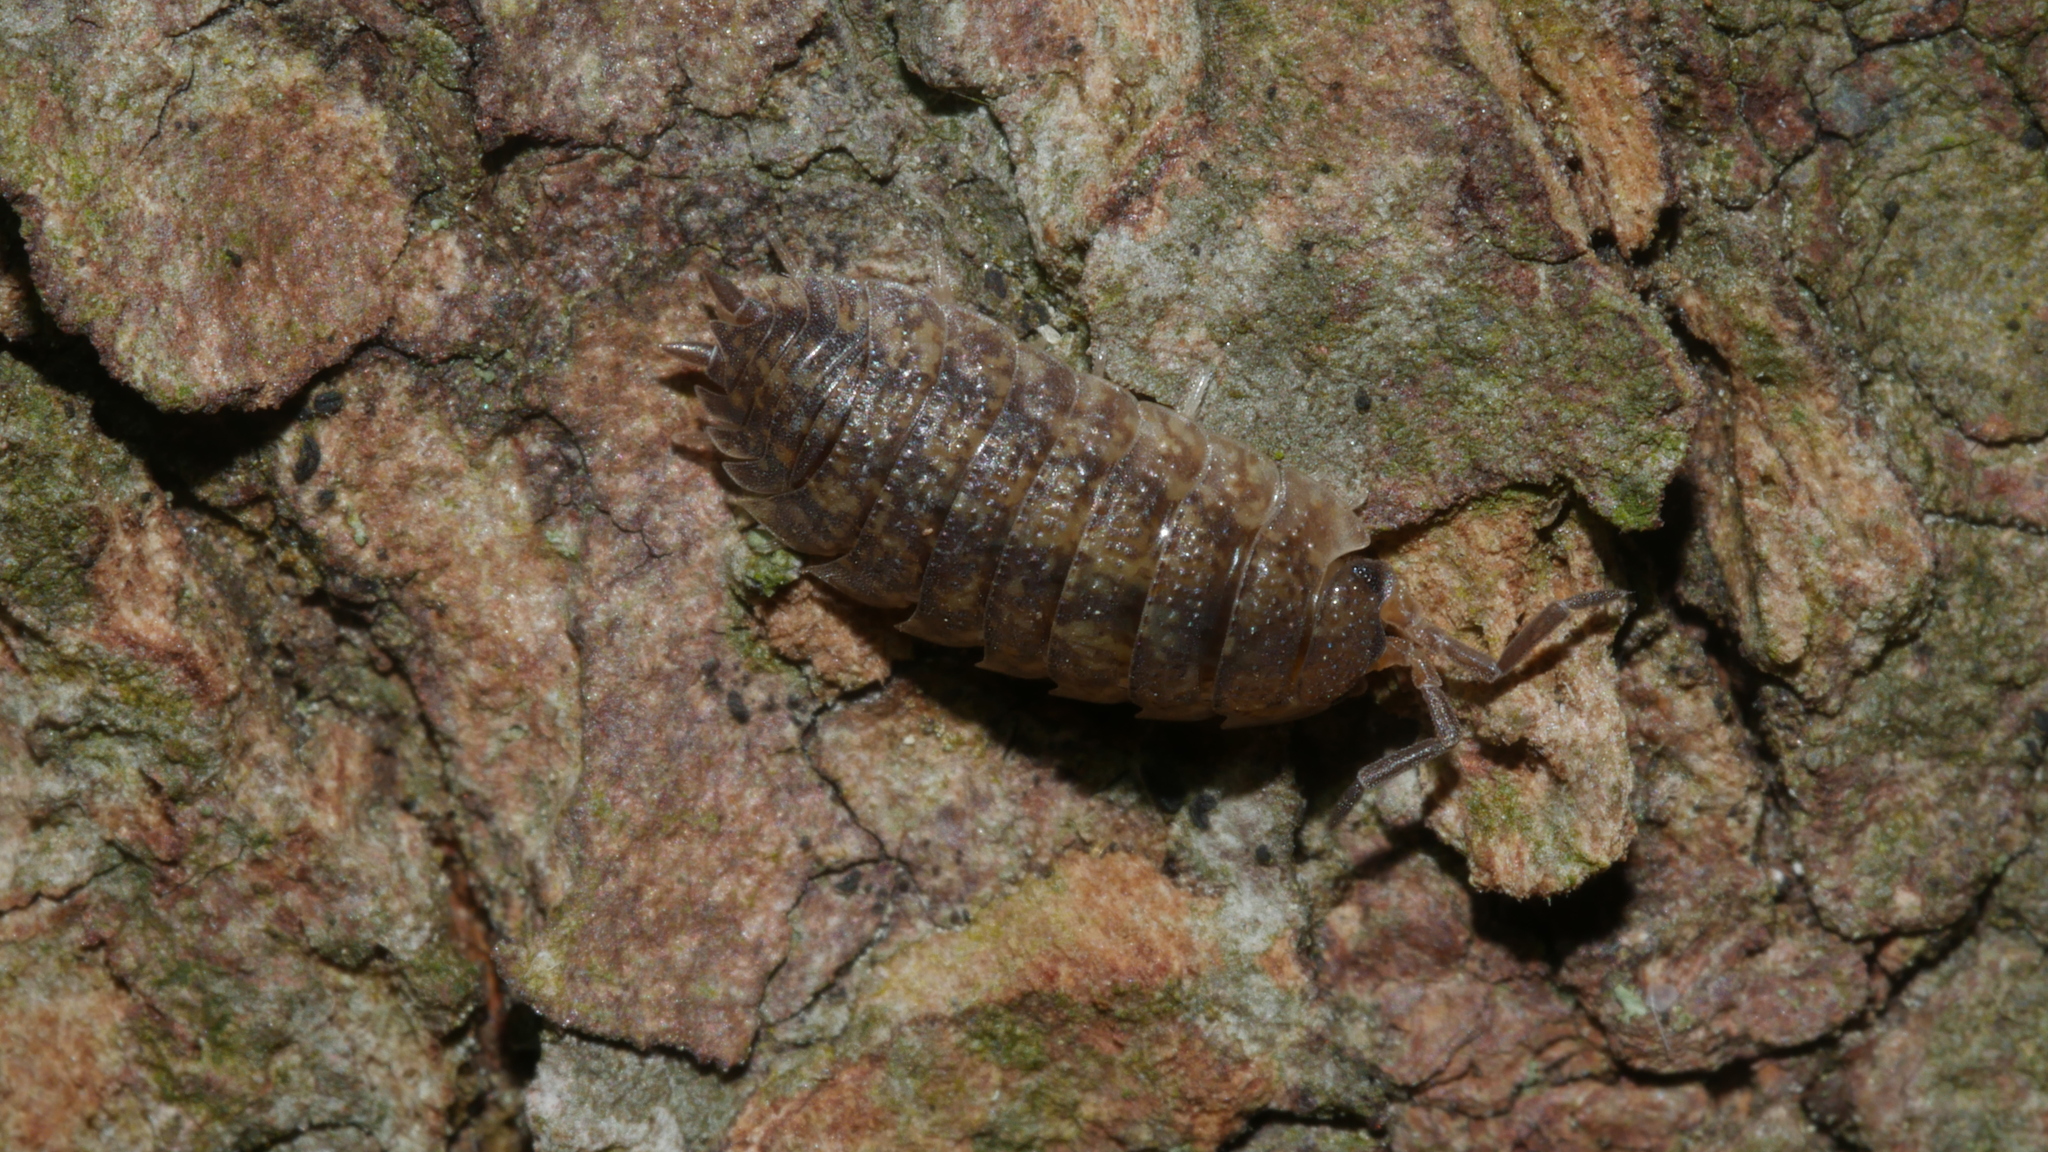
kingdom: Animalia
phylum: Arthropoda
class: Malacostraca
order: Isopoda
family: Porcellionidae
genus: Porcellio
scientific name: Porcellio scaber
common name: Common rough woodlouse
